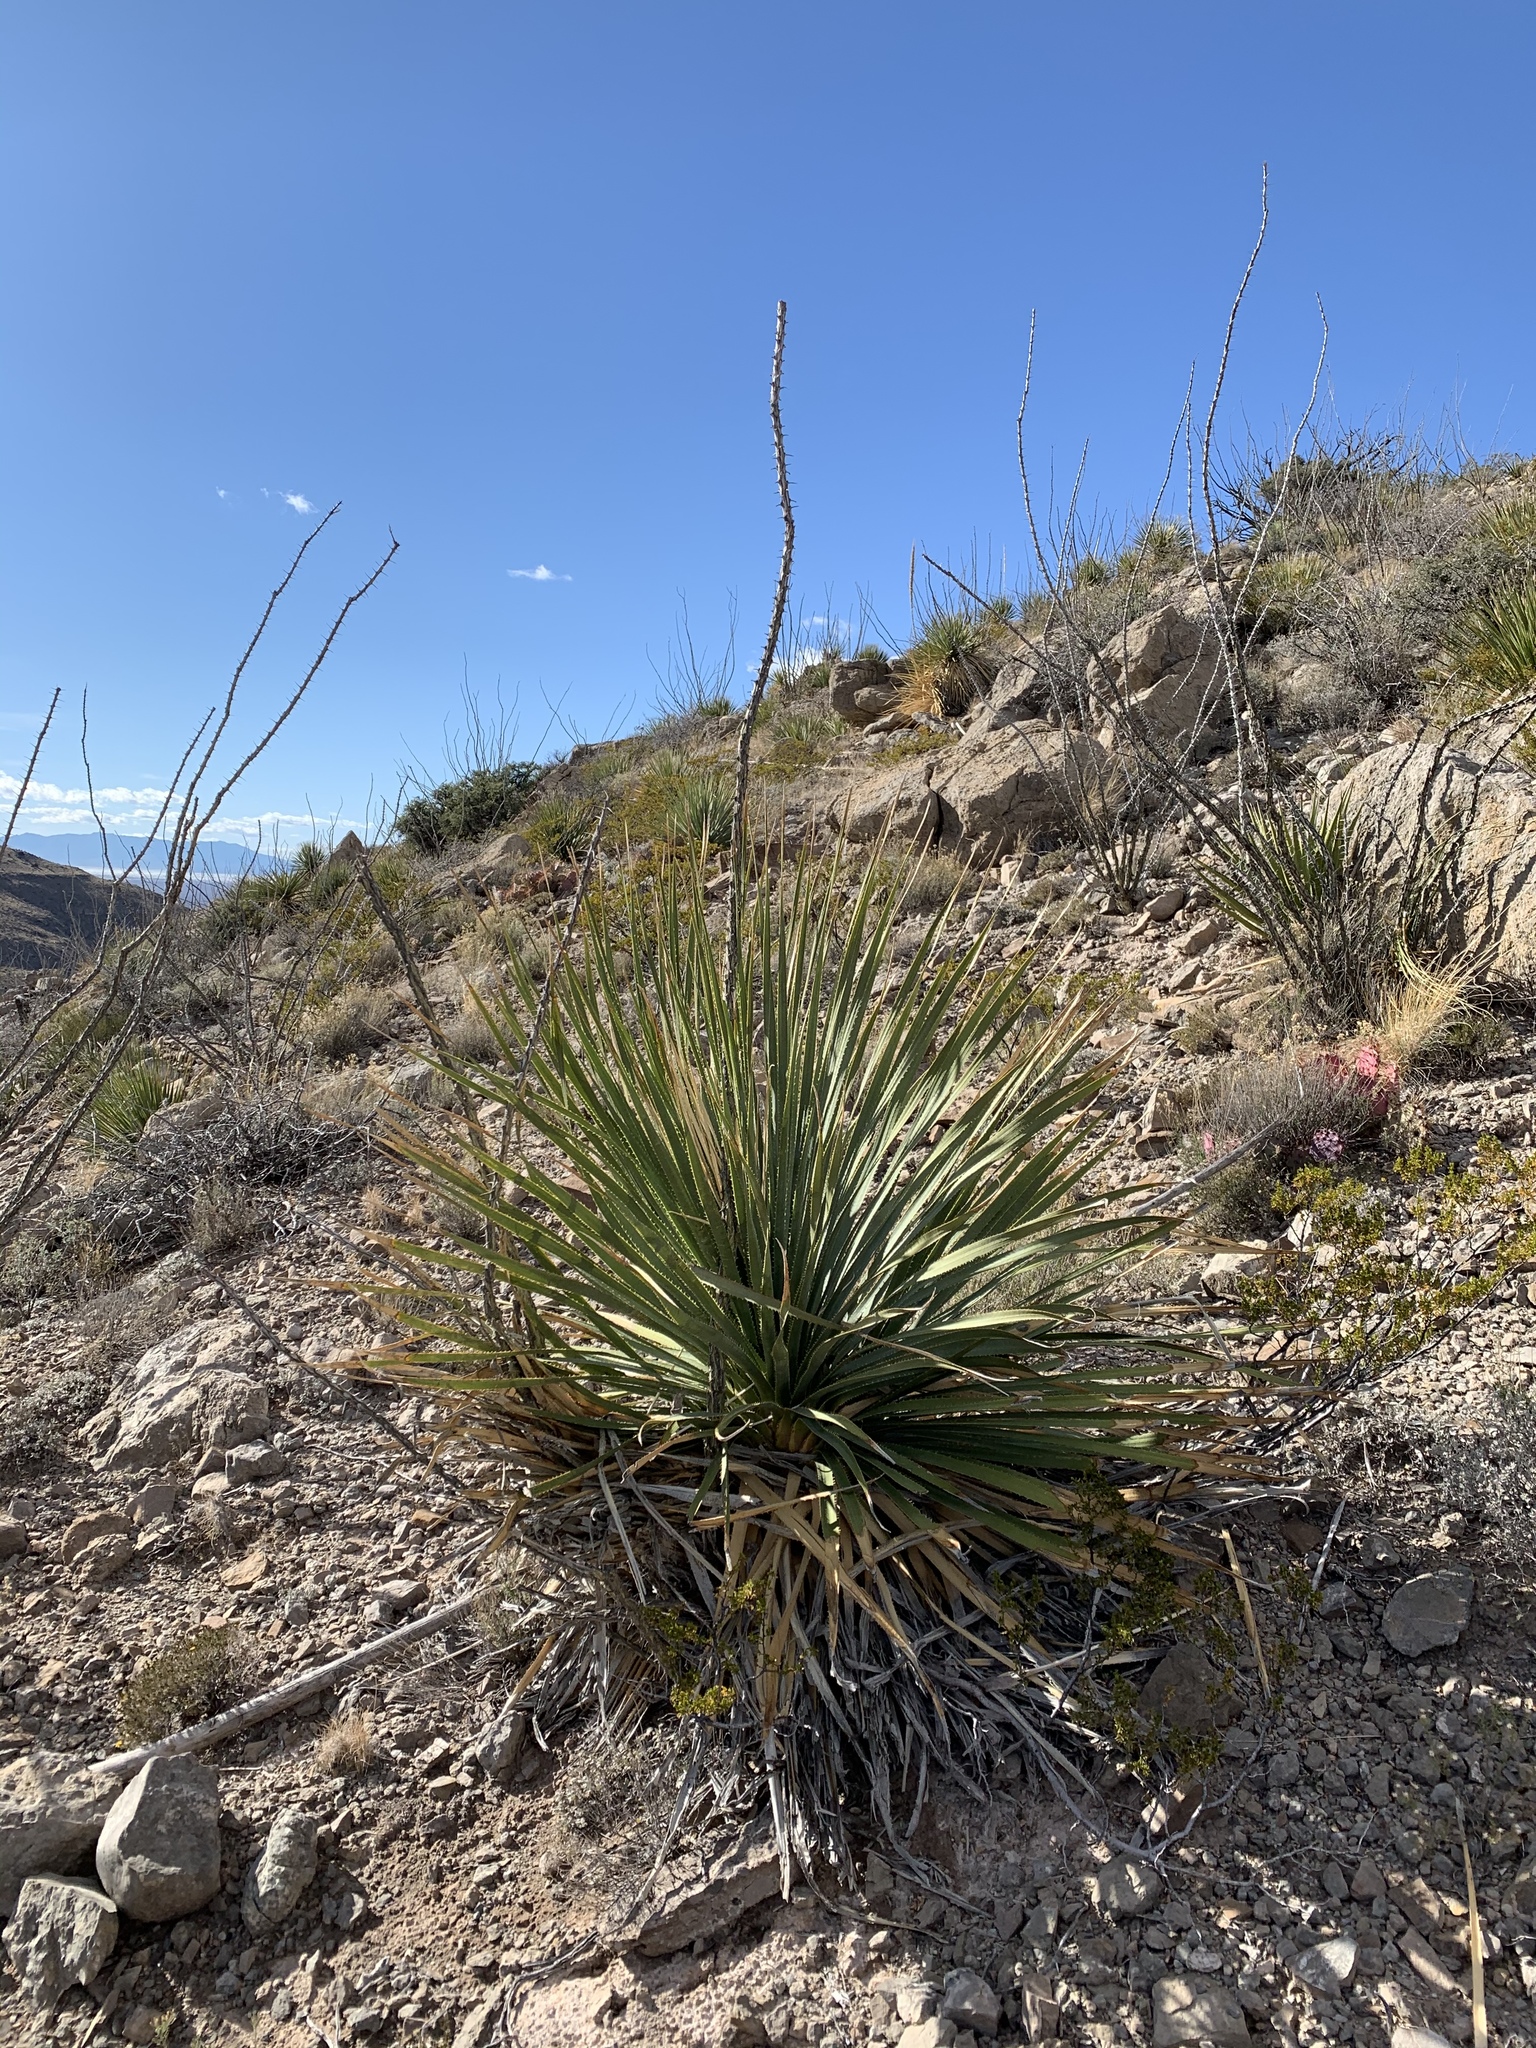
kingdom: Plantae
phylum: Tracheophyta
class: Liliopsida
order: Asparagales
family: Asparagaceae
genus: Dasylirion
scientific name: Dasylirion wheeleri
